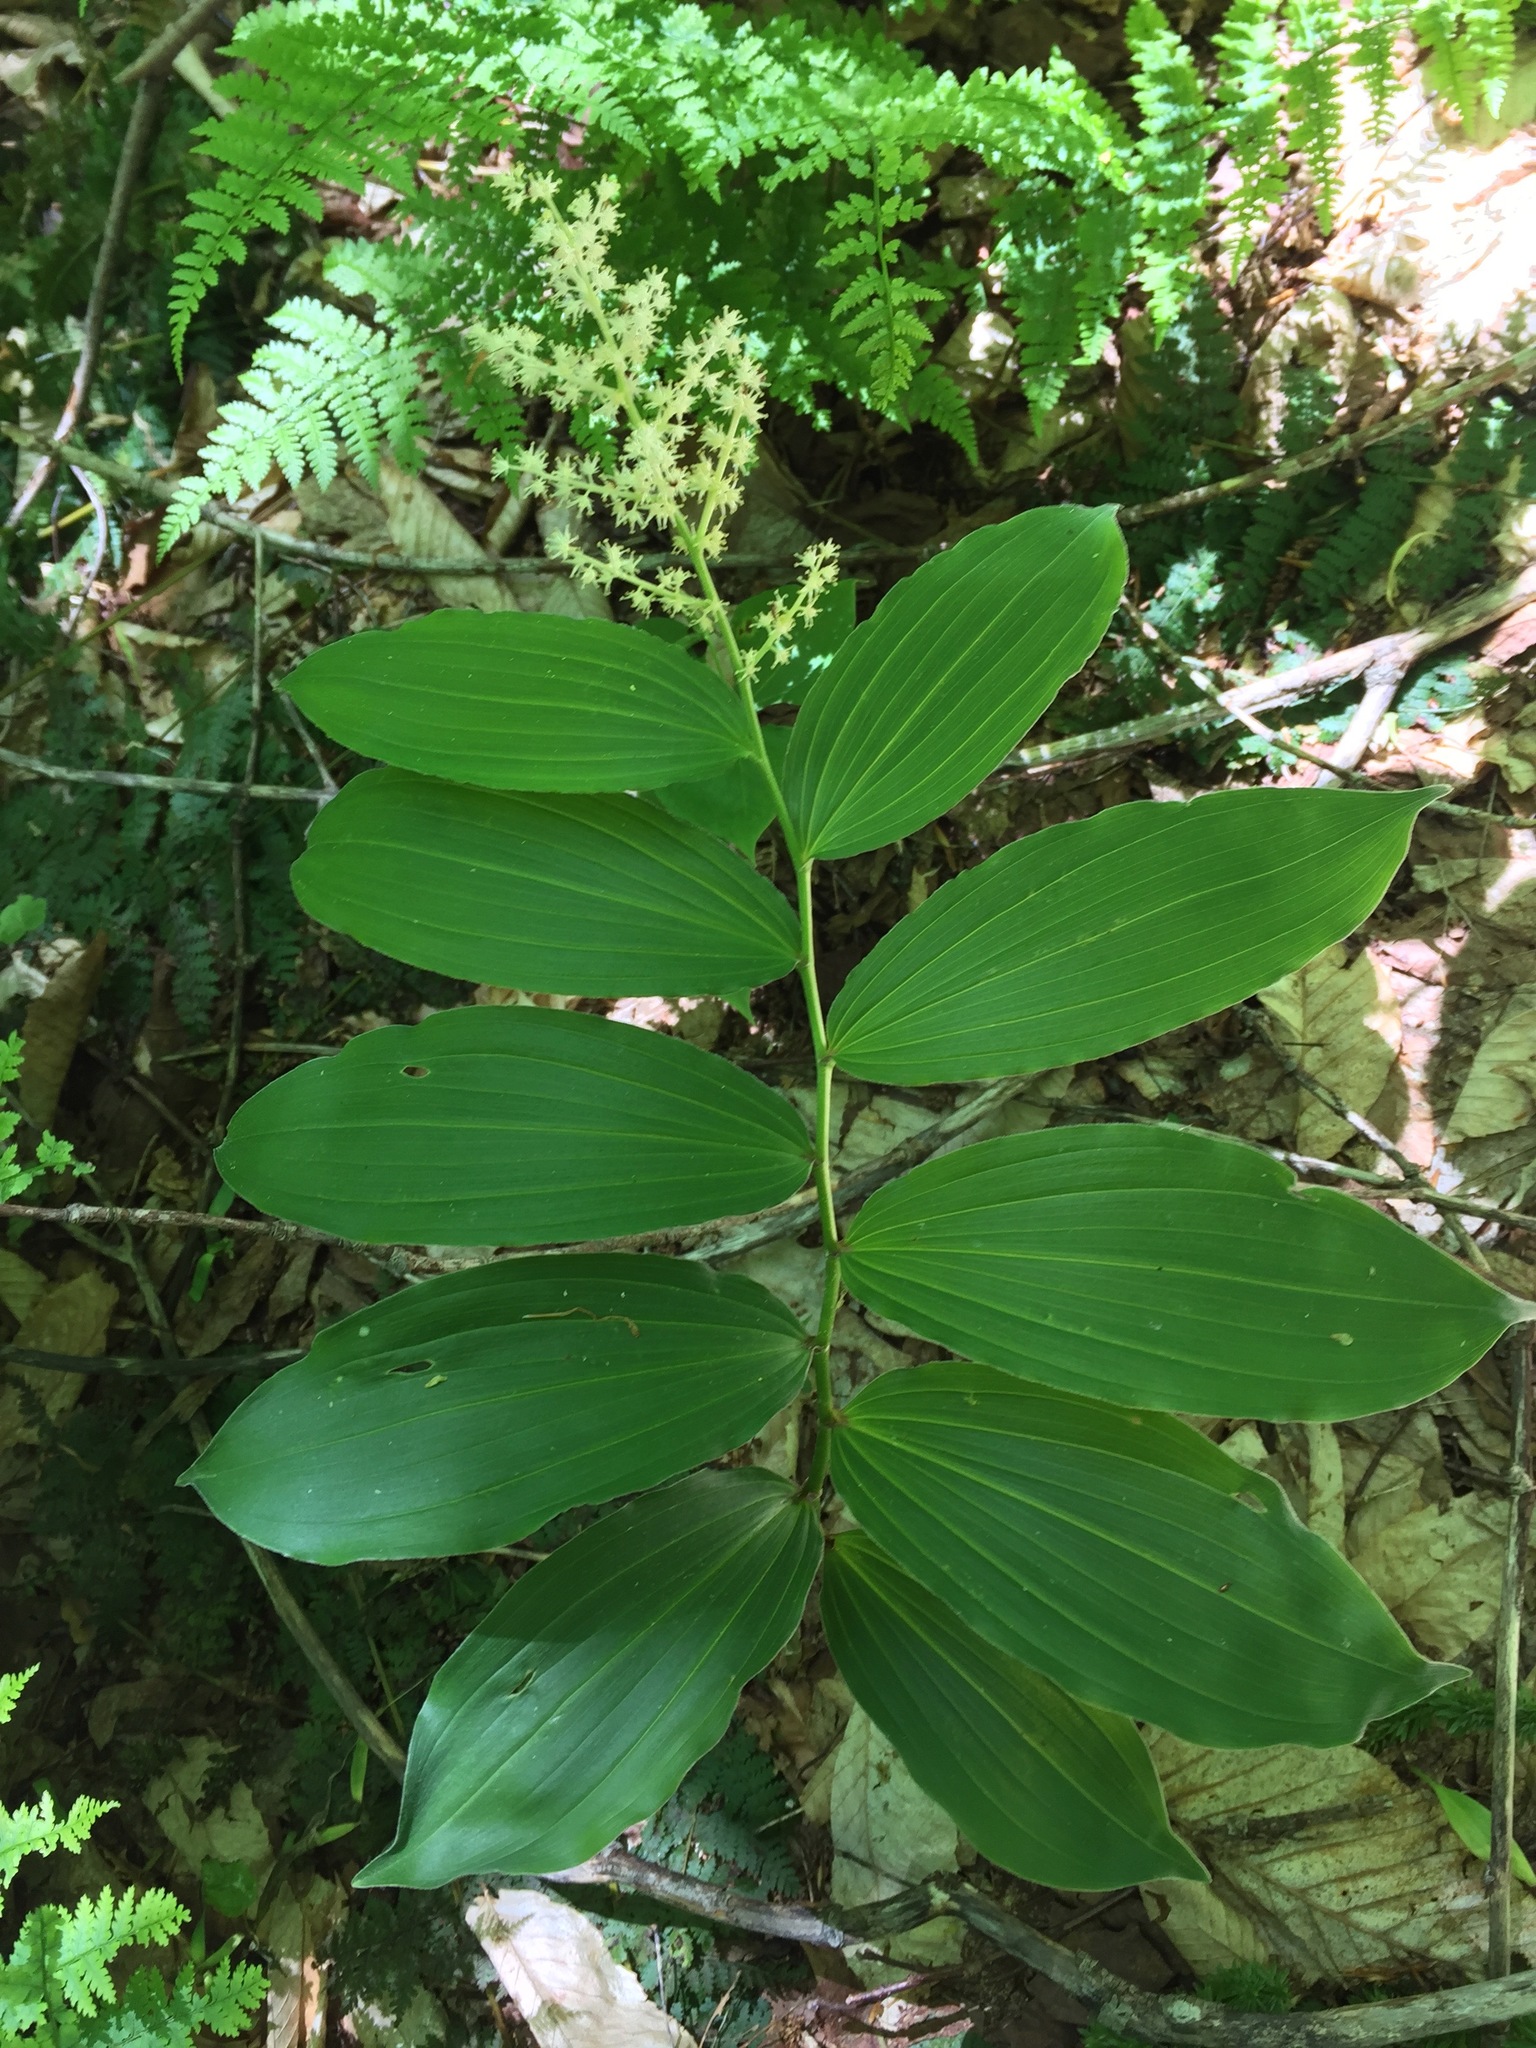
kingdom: Plantae
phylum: Tracheophyta
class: Liliopsida
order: Asparagales
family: Asparagaceae
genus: Maianthemum
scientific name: Maianthemum racemosum
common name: False spikenard
